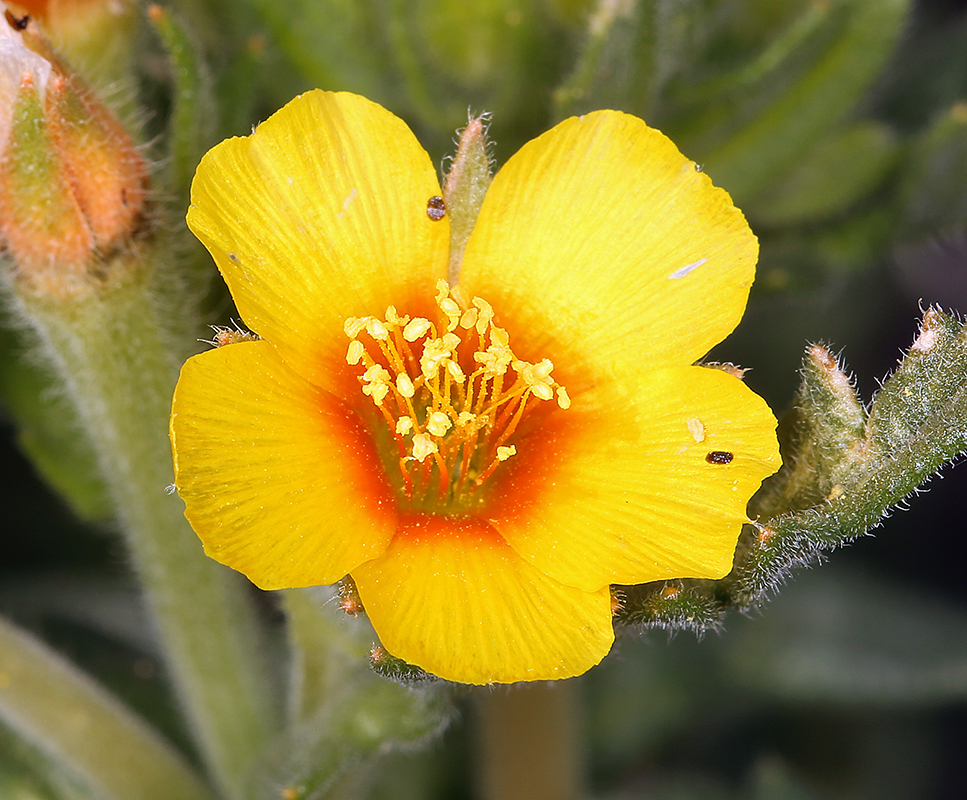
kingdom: Plantae
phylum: Tracheophyta
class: Magnoliopsida
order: Cornales
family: Loasaceae
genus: Mentzelia
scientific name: Mentzelia veatchiana
